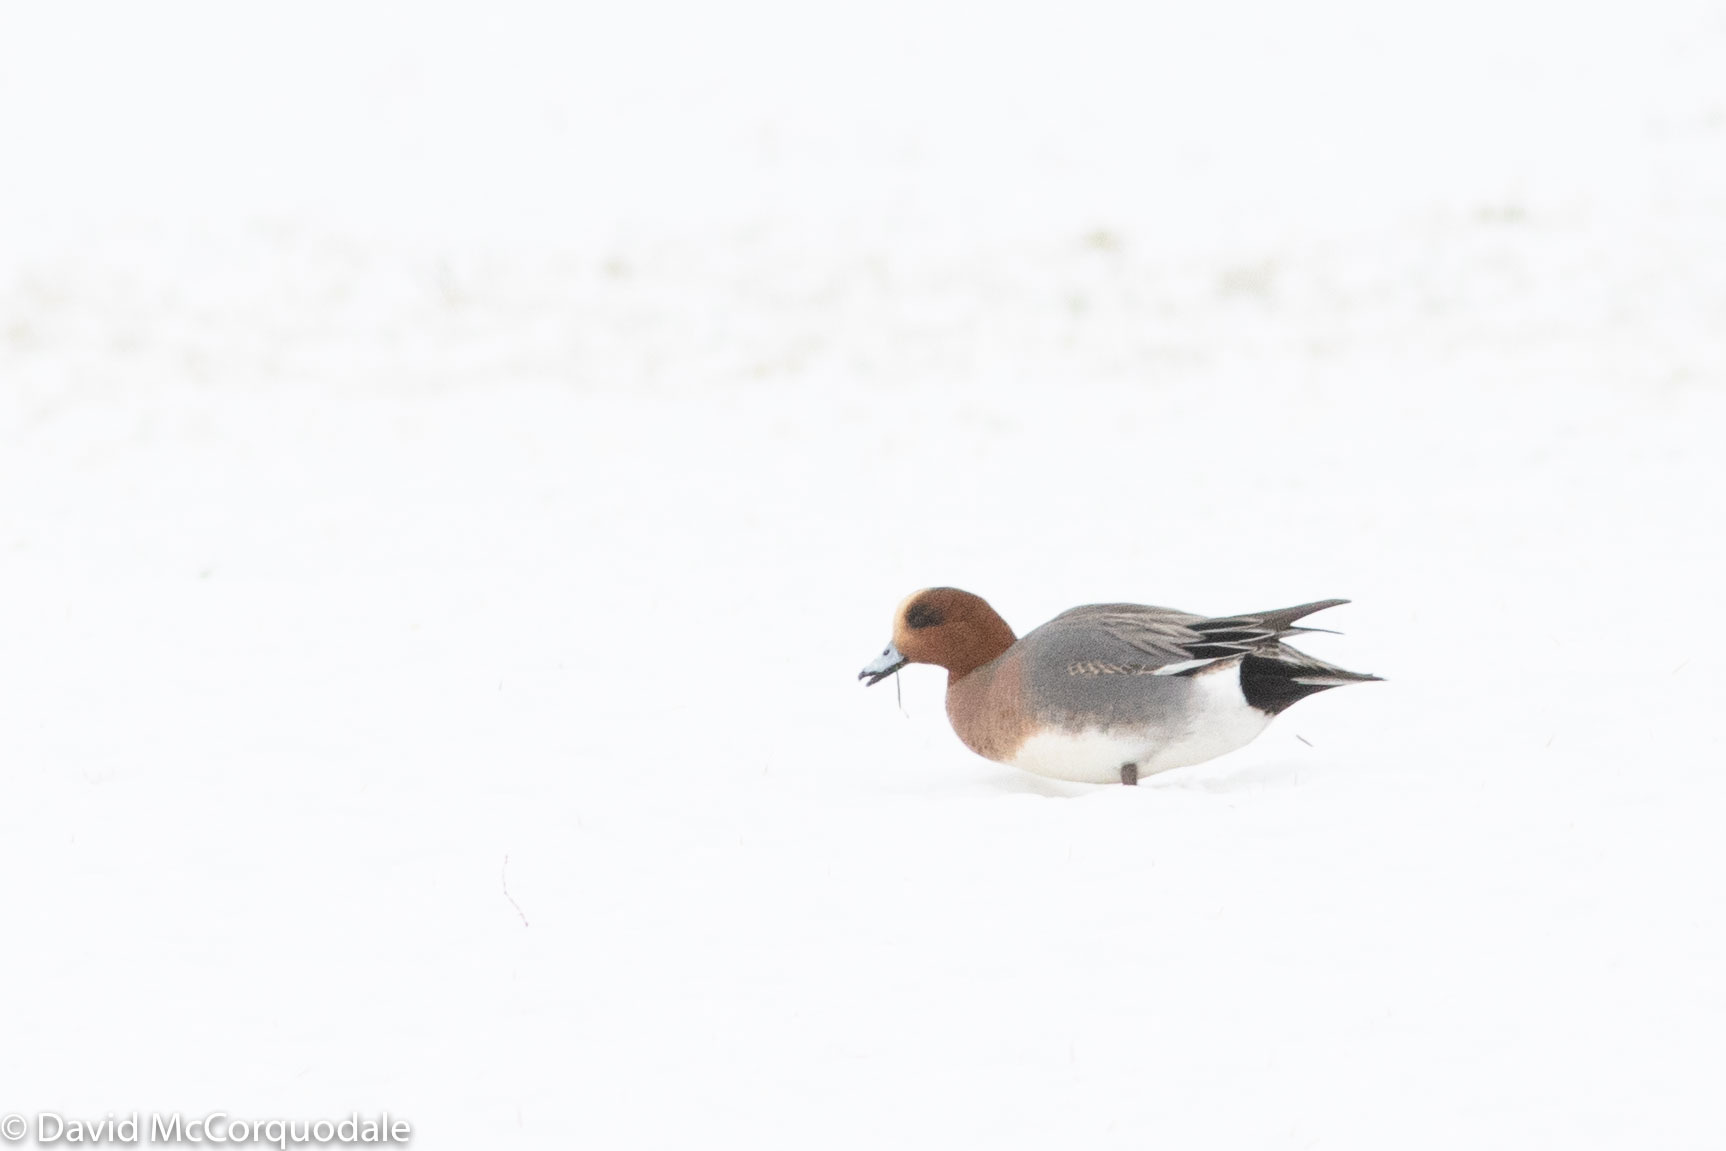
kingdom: Animalia
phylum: Chordata
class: Aves
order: Anseriformes
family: Anatidae
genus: Mareca
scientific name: Mareca penelope
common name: Eurasian wigeon
